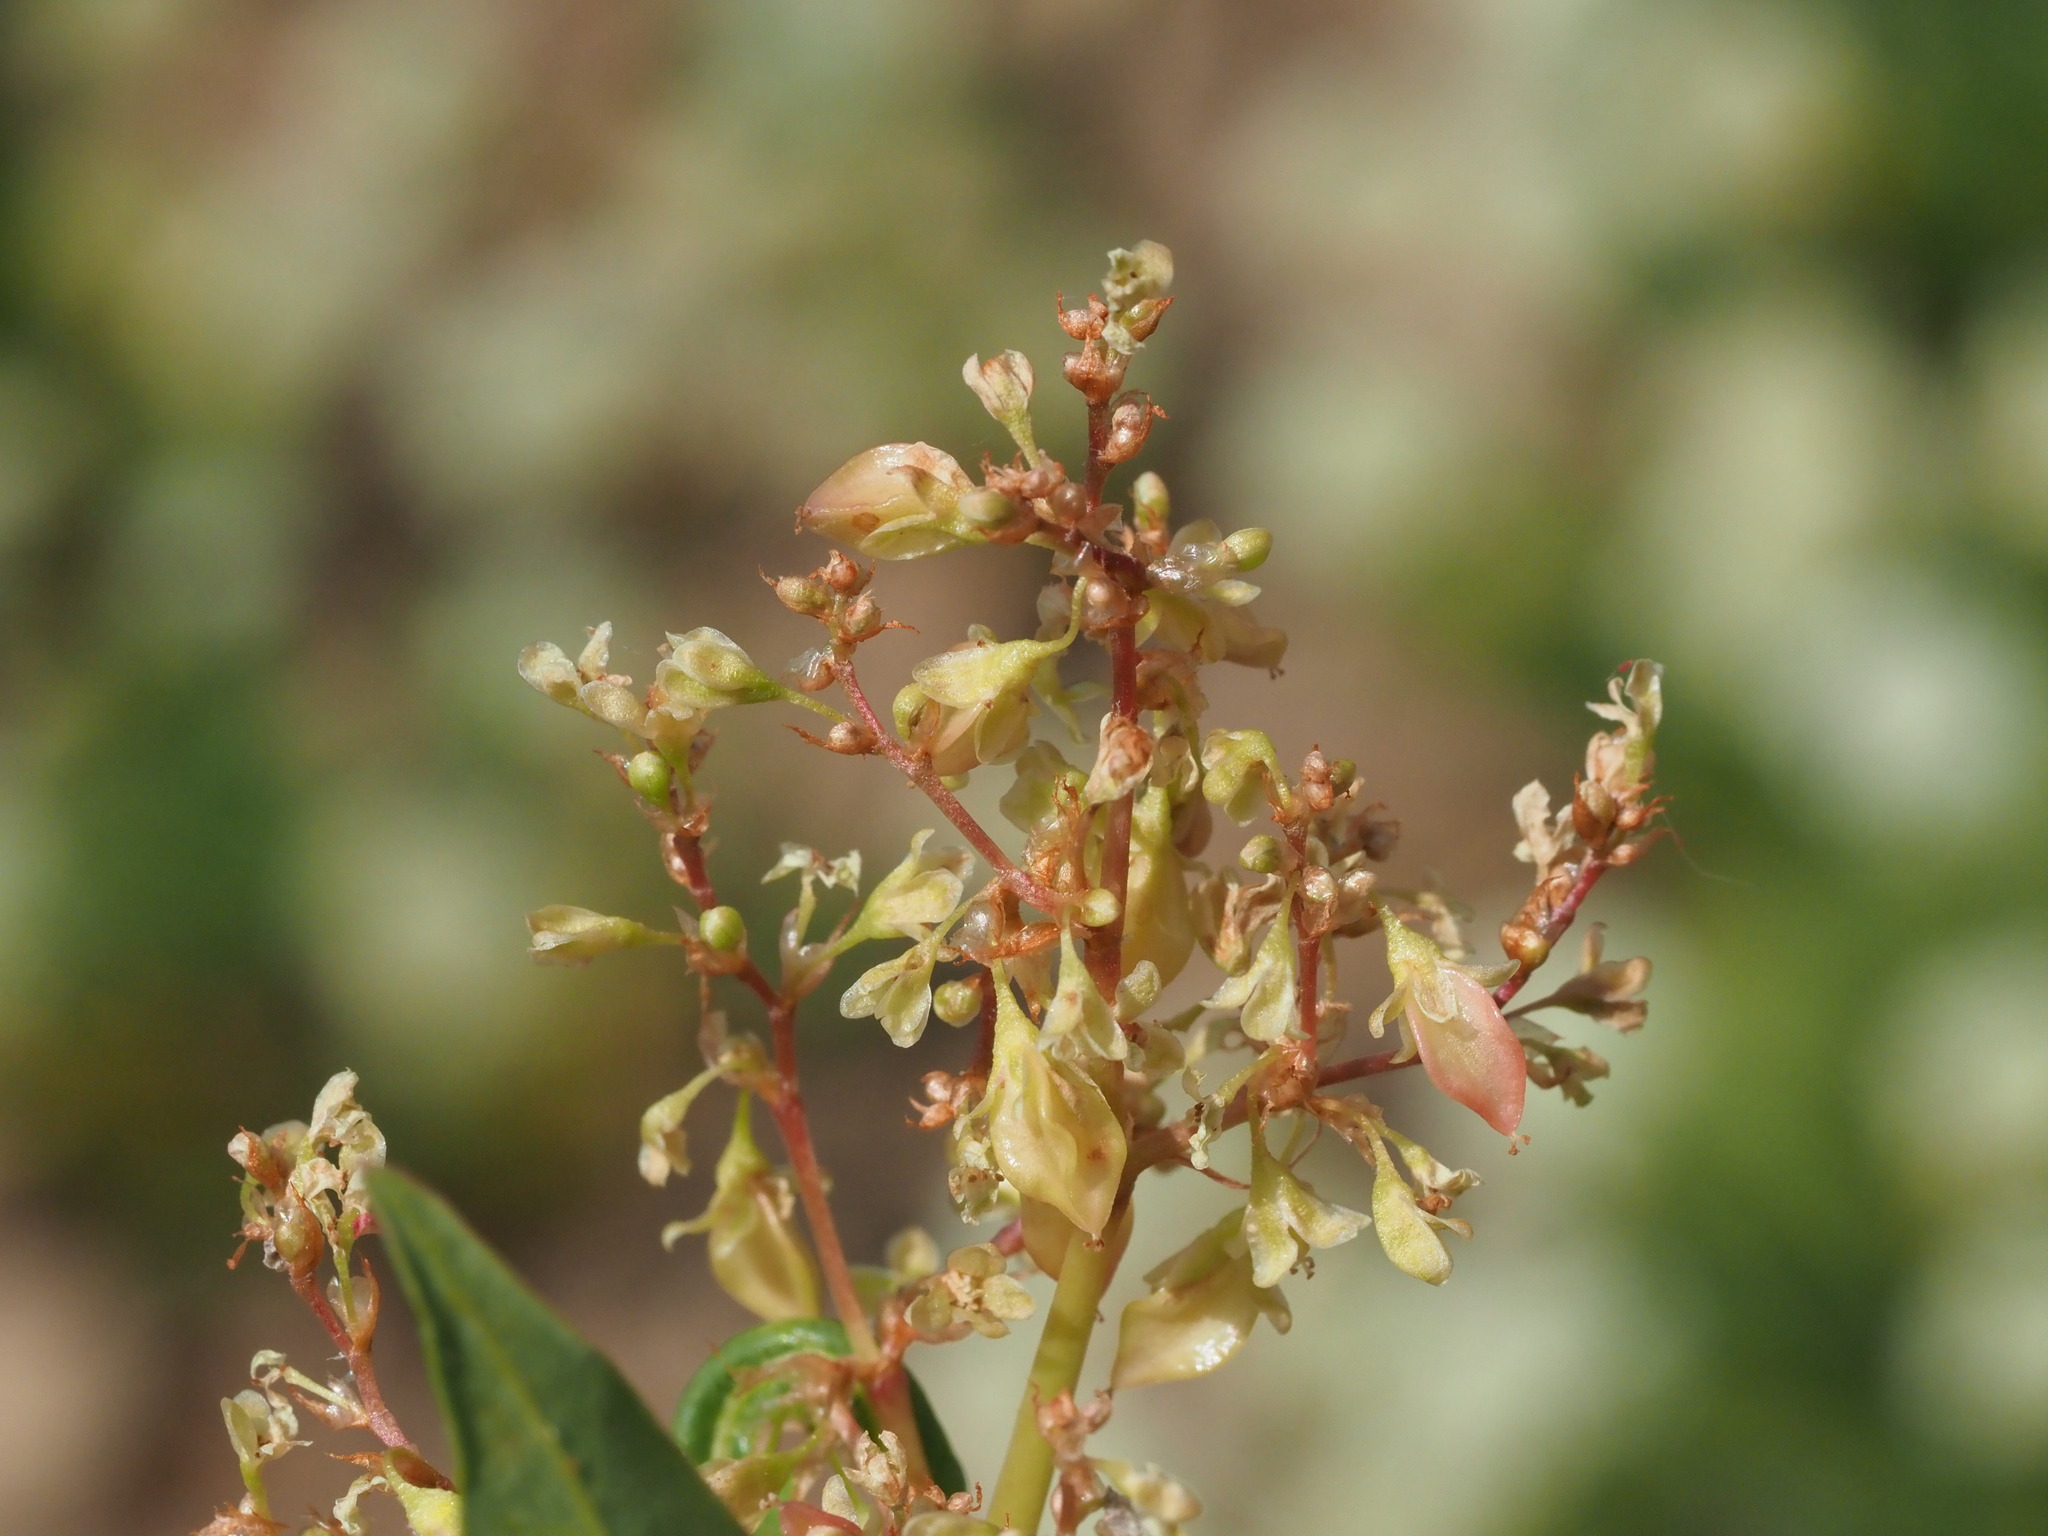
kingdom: Plantae
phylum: Tracheophyta
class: Magnoliopsida
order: Caryophyllales
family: Polygonaceae
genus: Koenigia
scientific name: Koenigia phytolaccifolia
